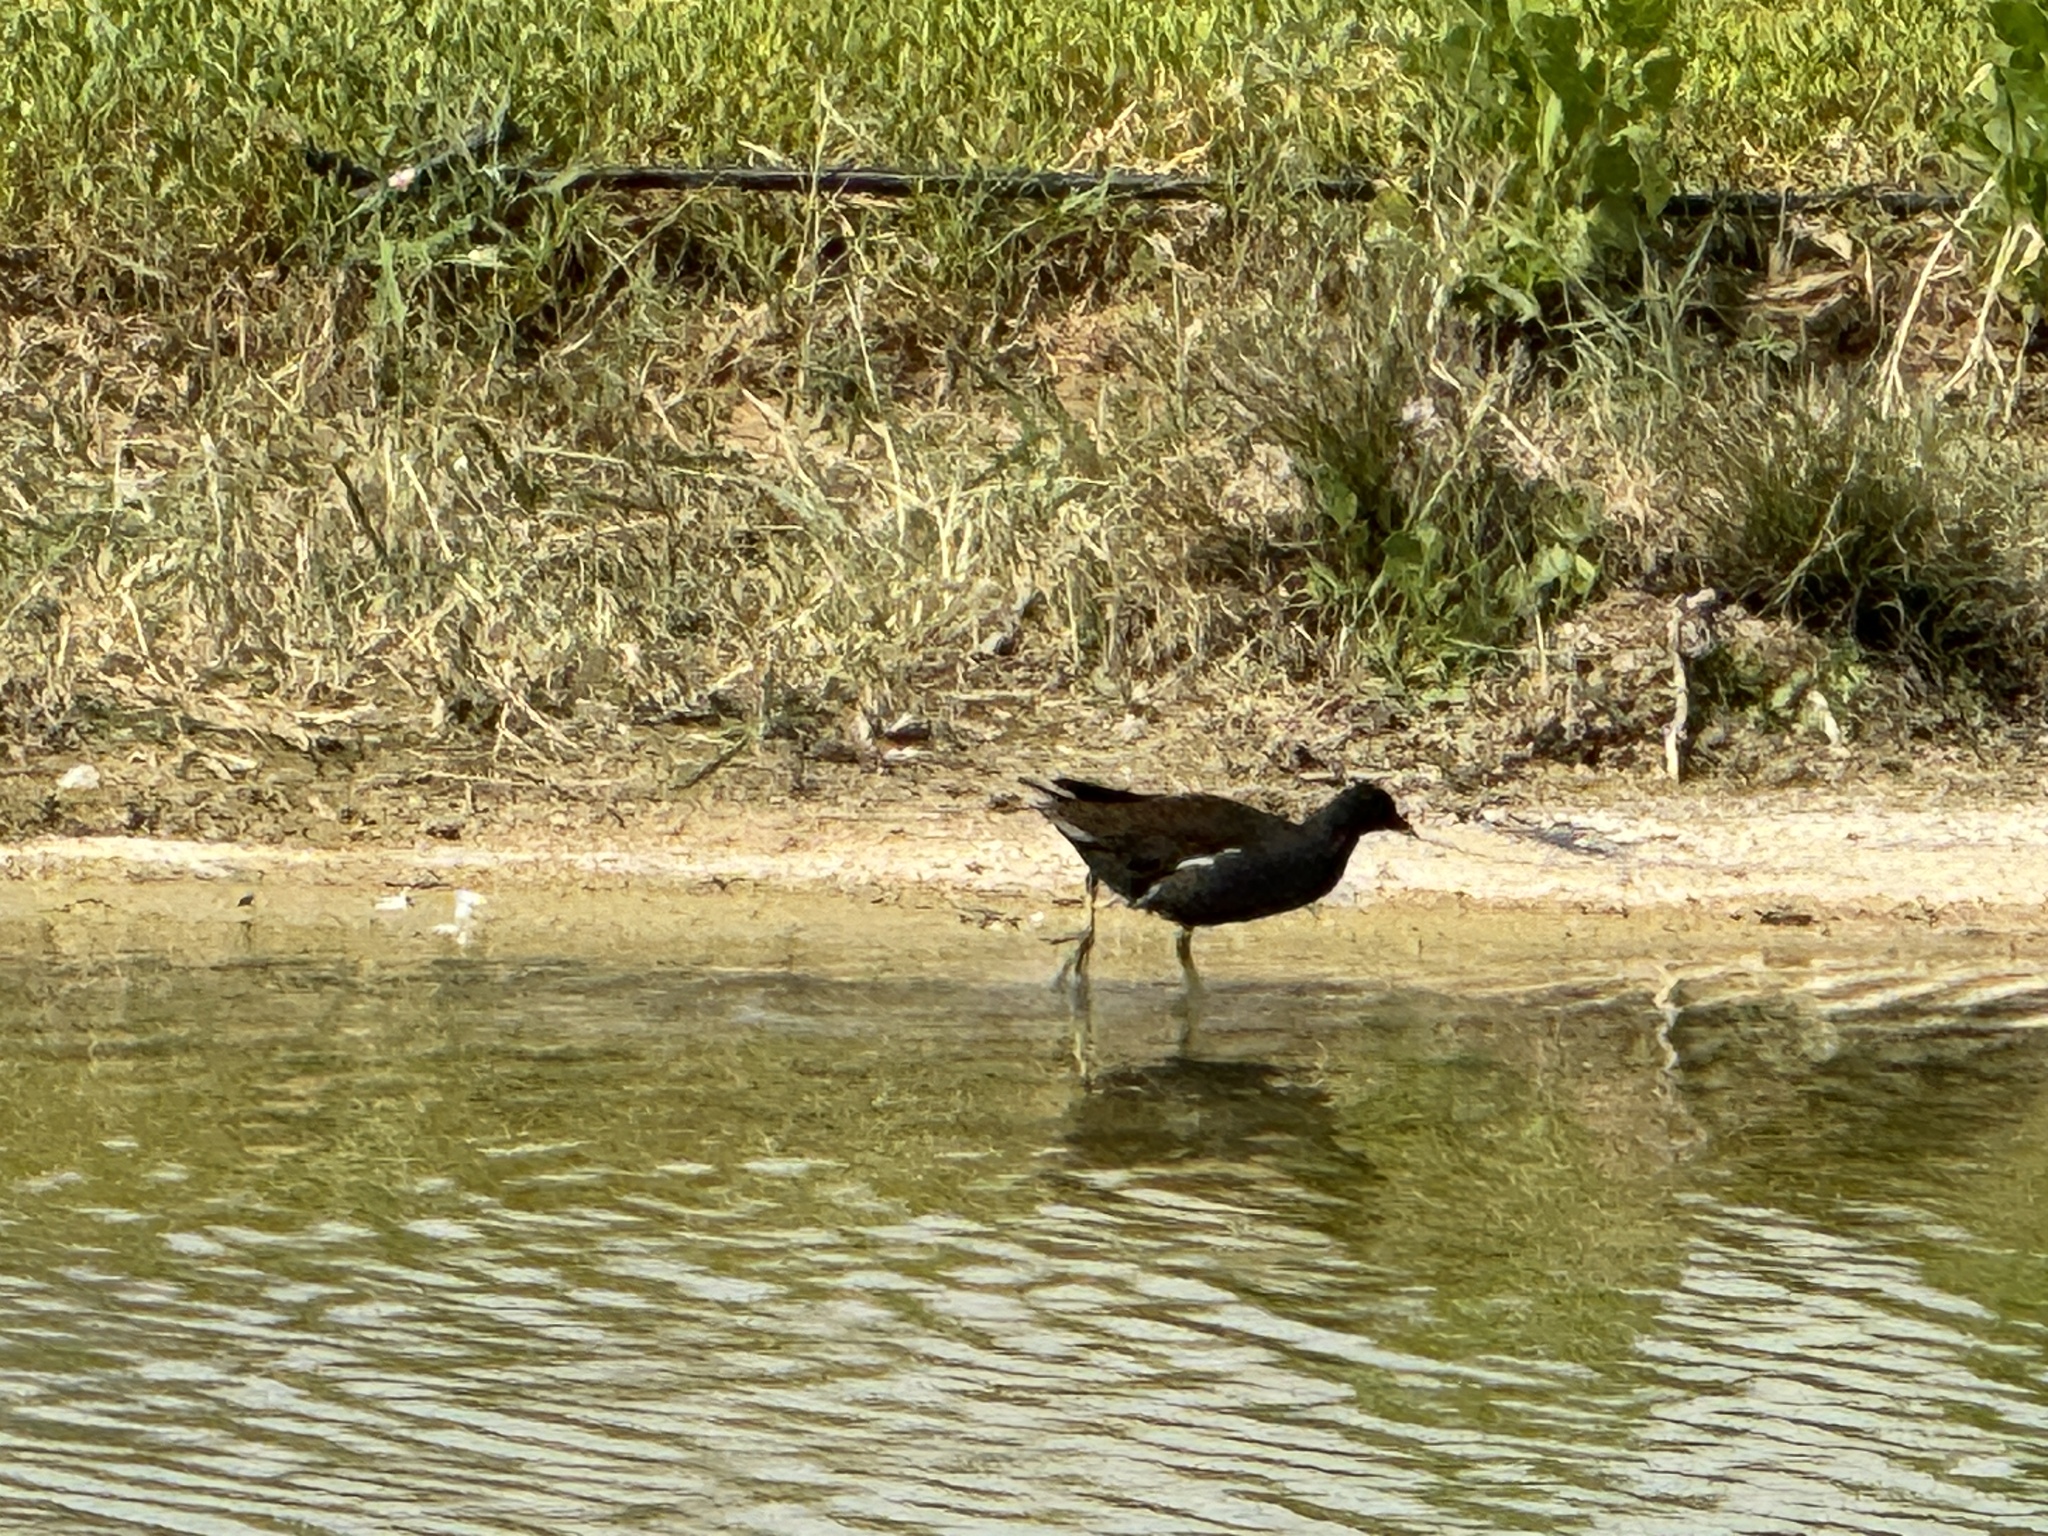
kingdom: Animalia
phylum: Chordata
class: Aves
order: Gruiformes
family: Rallidae
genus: Gallinula
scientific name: Gallinula chloropus
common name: Common moorhen
